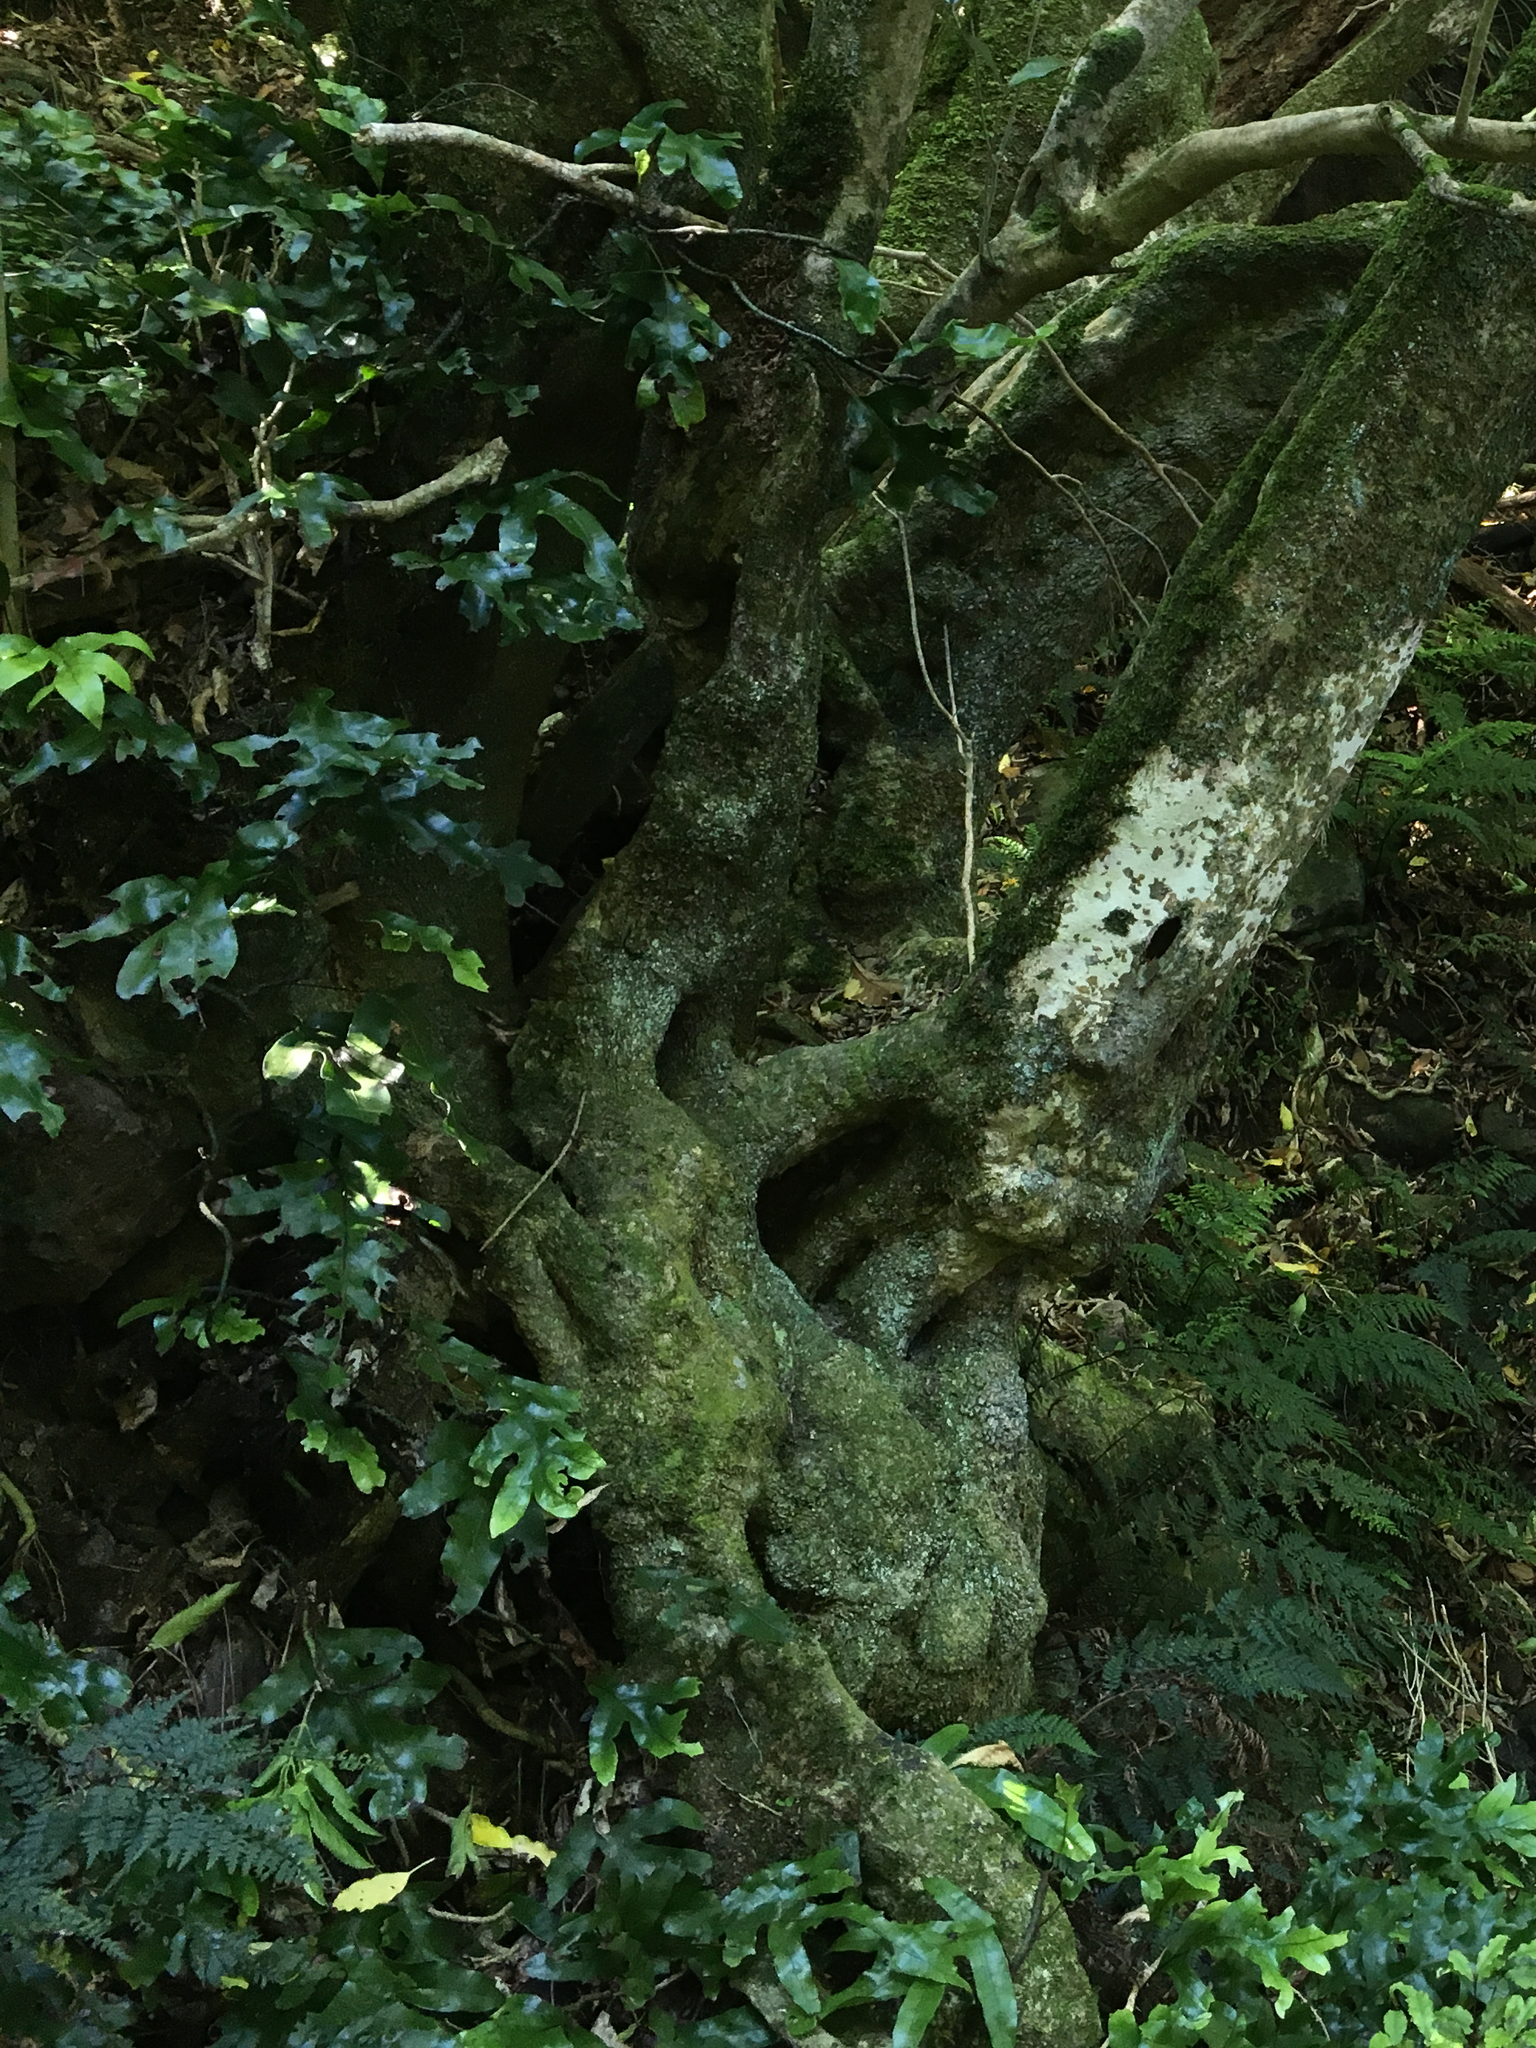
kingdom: Plantae
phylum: Tracheophyta
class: Polypodiopsida
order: Polypodiales
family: Polypodiaceae
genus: Lecanopteris
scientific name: Lecanopteris pustulata
